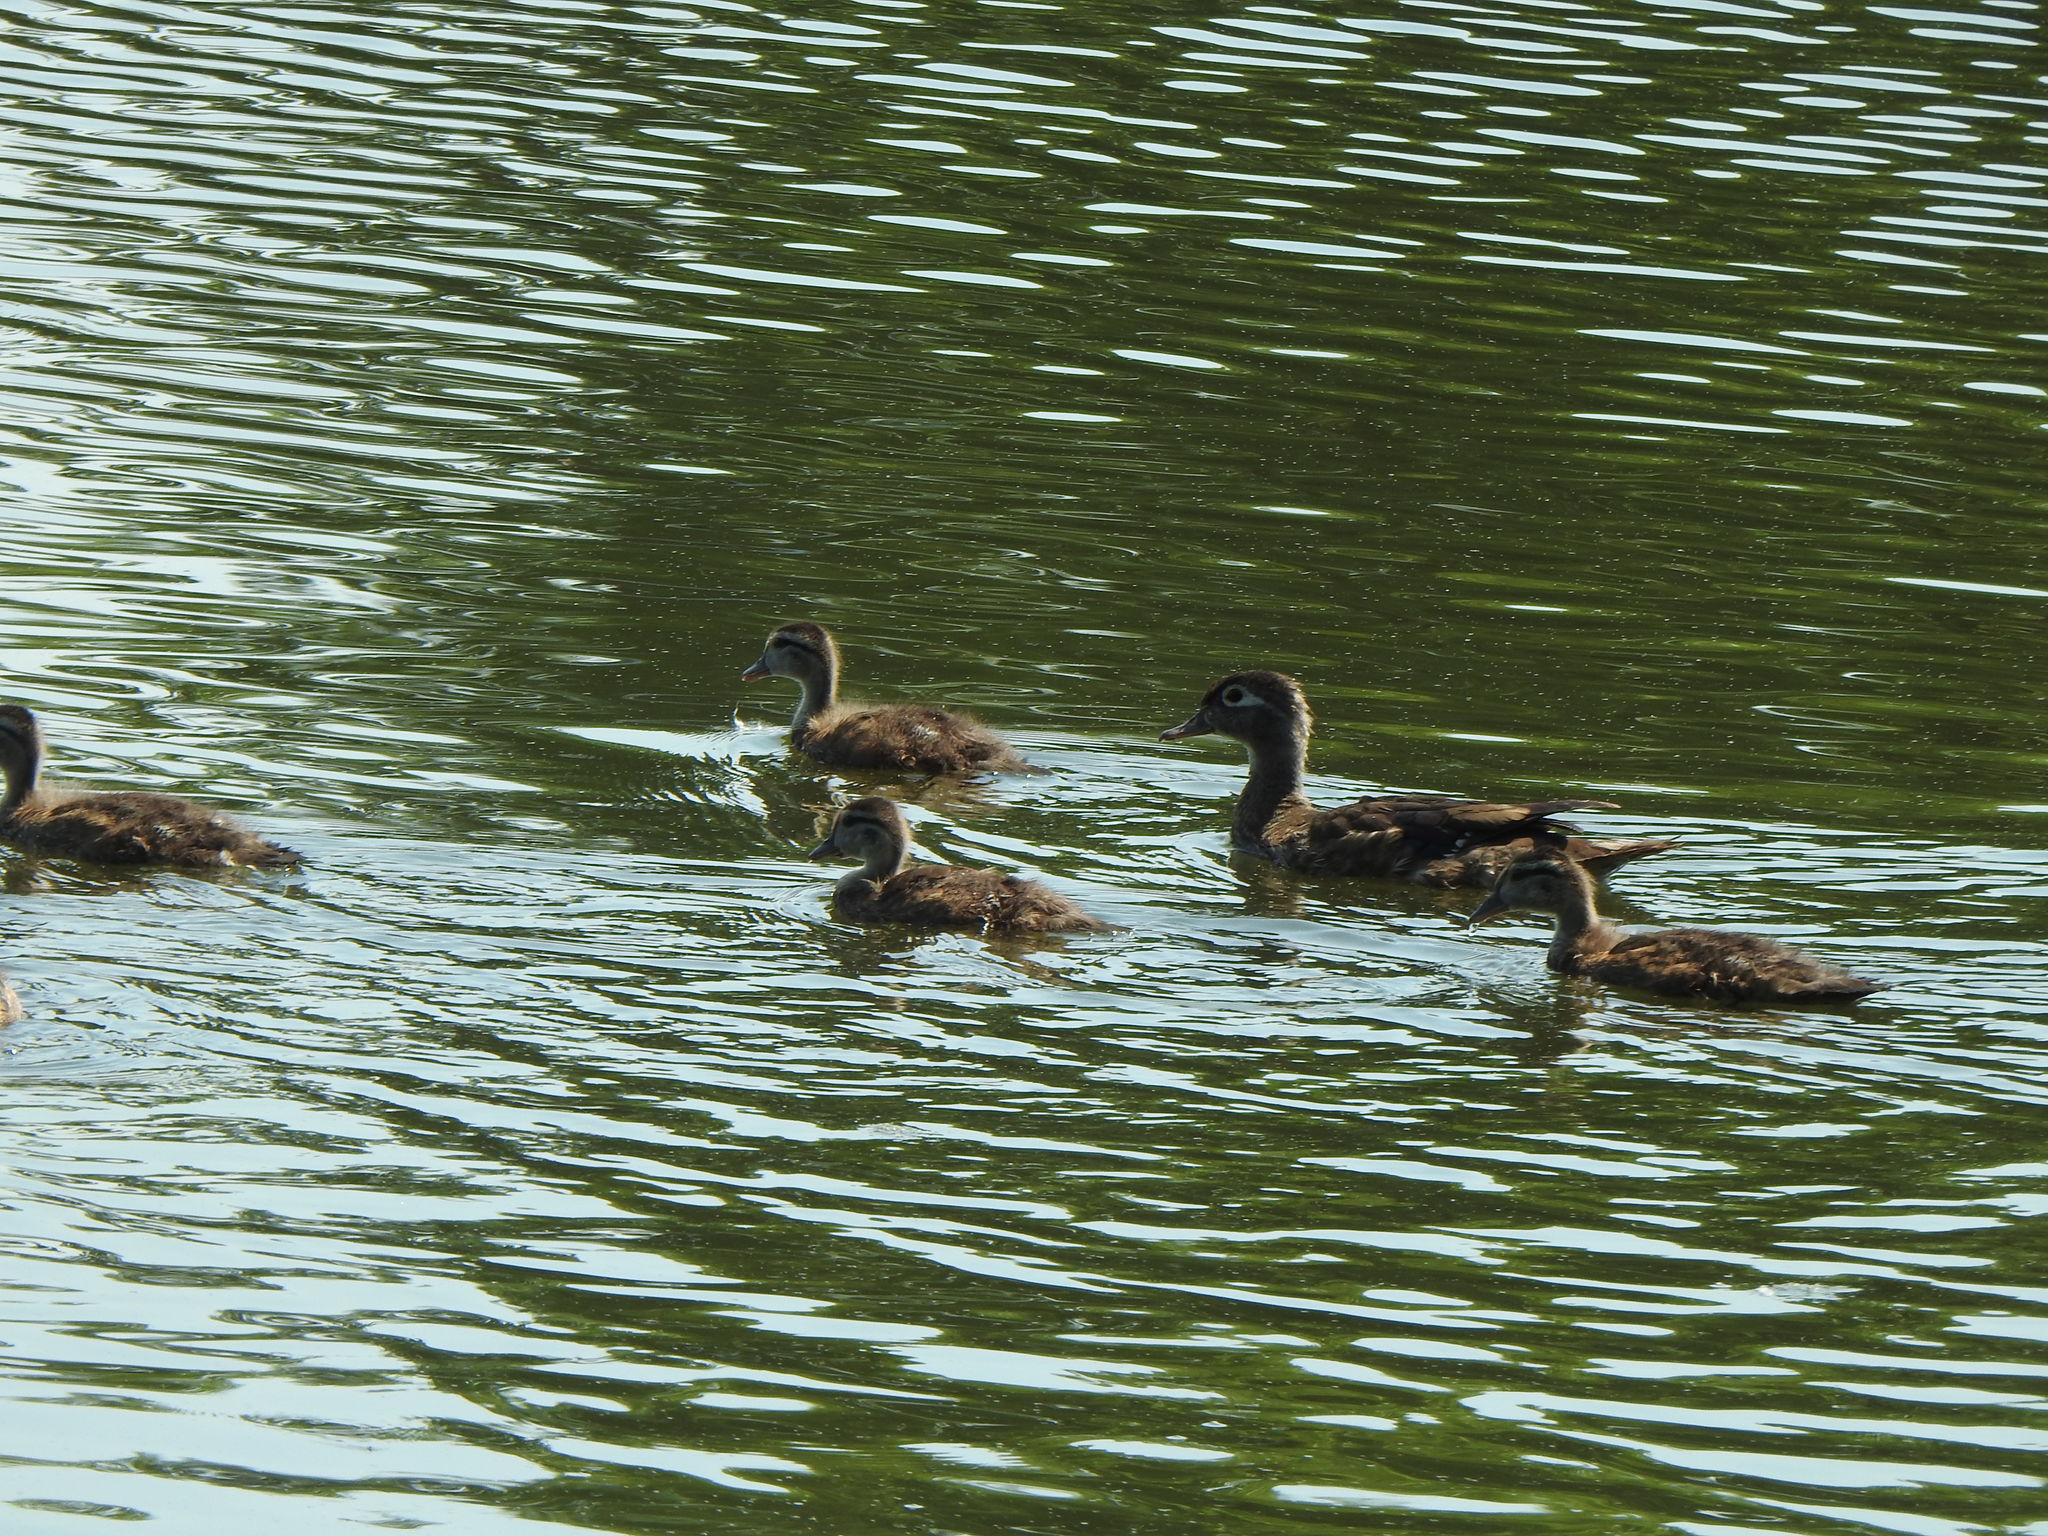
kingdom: Animalia
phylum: Chordata
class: Aves
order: Anseriformes
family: Anatidae
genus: Aix
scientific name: Aix sponsa
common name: Wood duck
